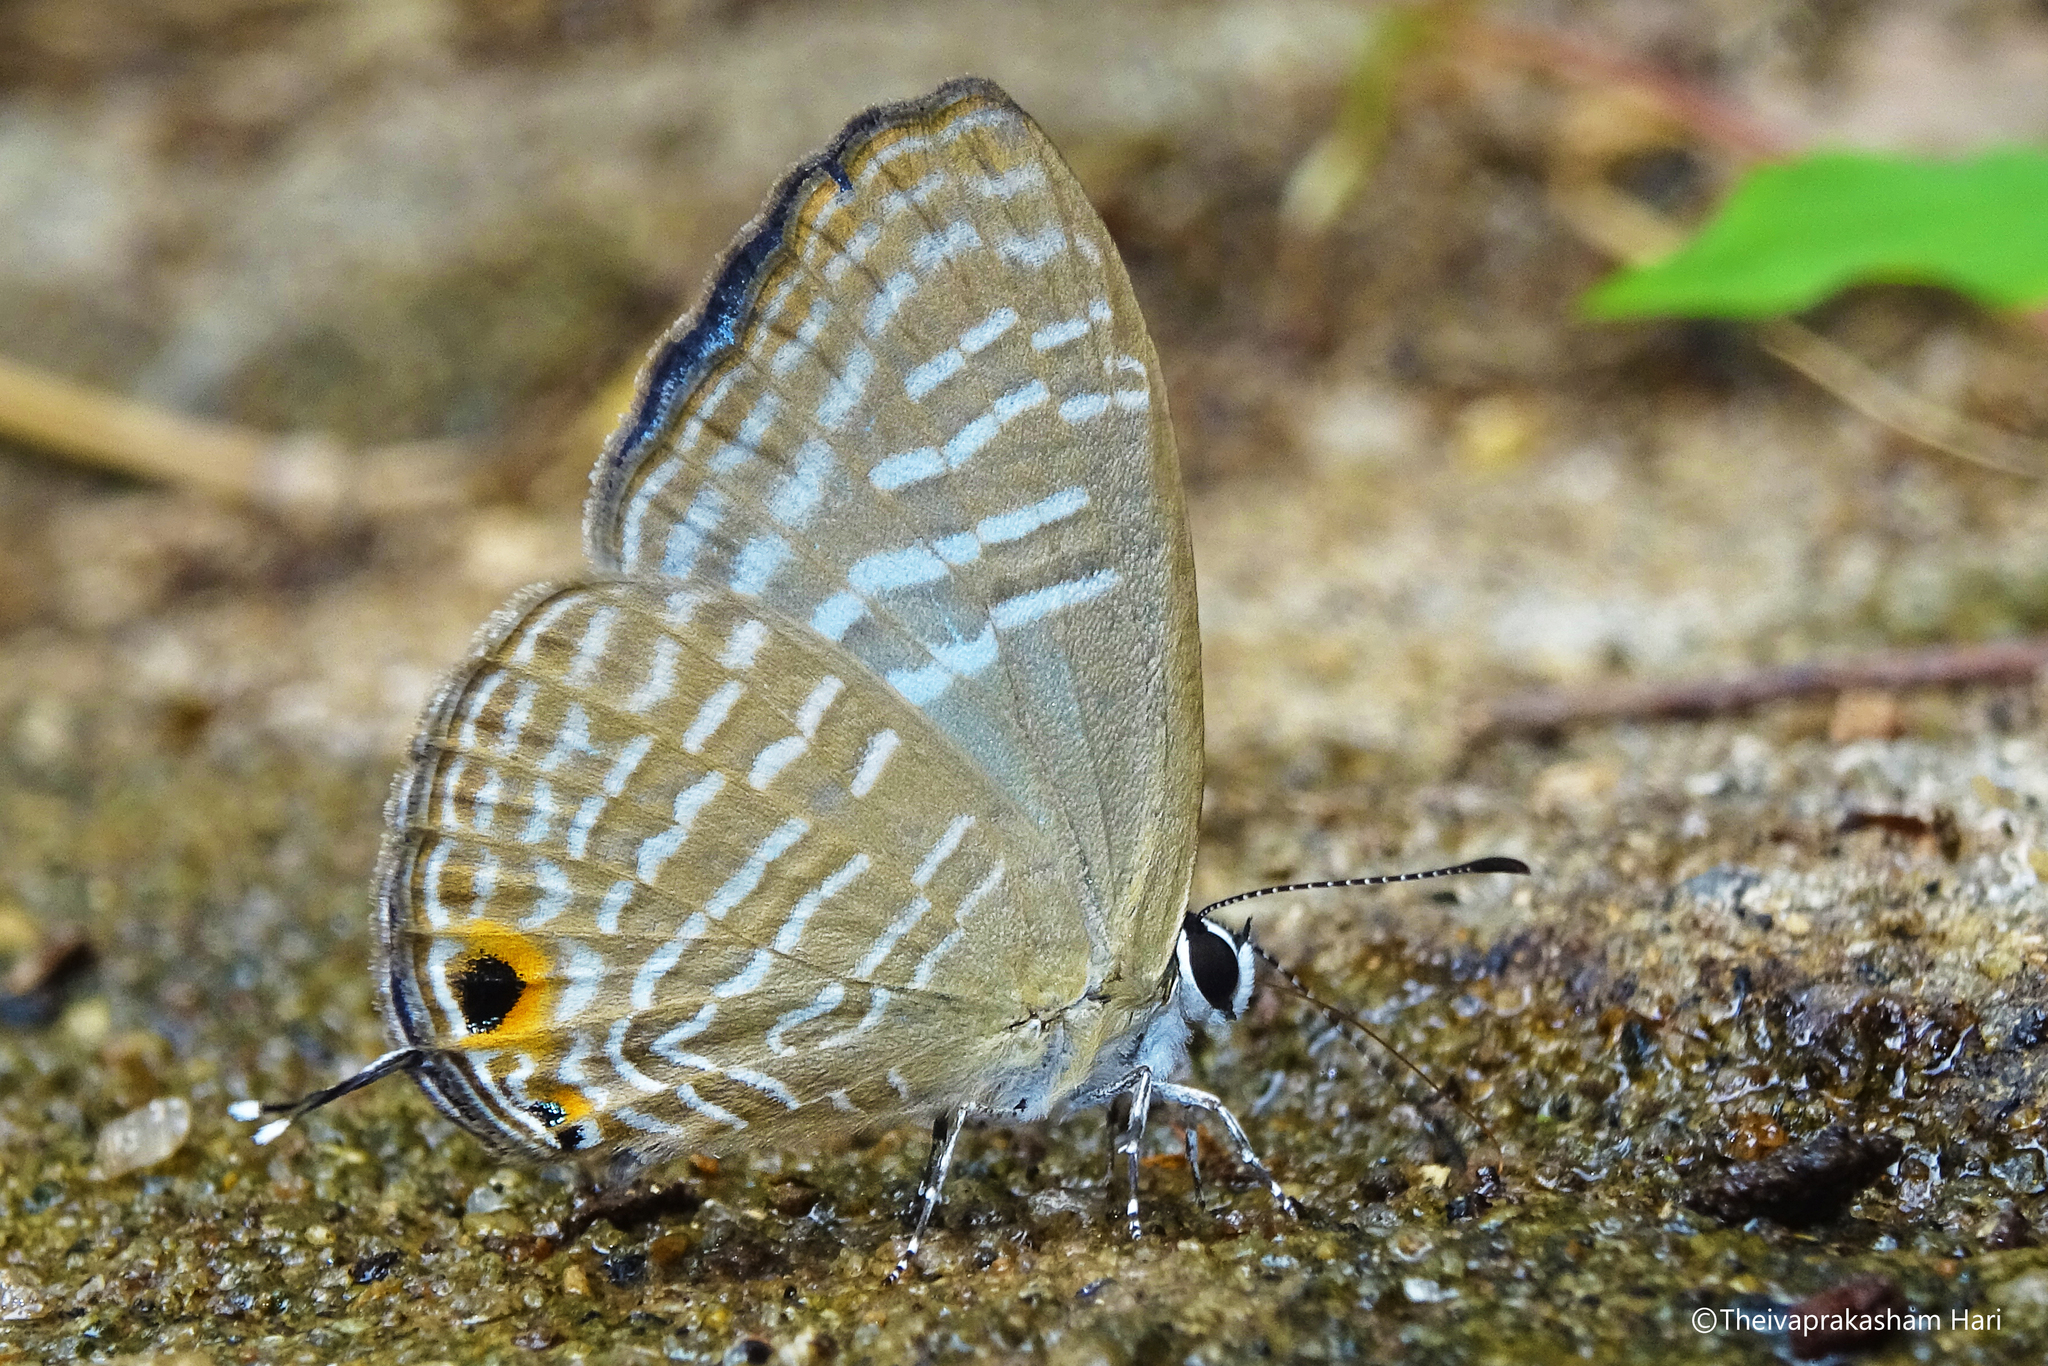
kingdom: Animalia
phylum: Arthropoda
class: Insecta
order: Lepidoptera
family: Lycaenidae
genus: Jamides
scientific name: Jamides alecto
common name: Metallic cerulean
